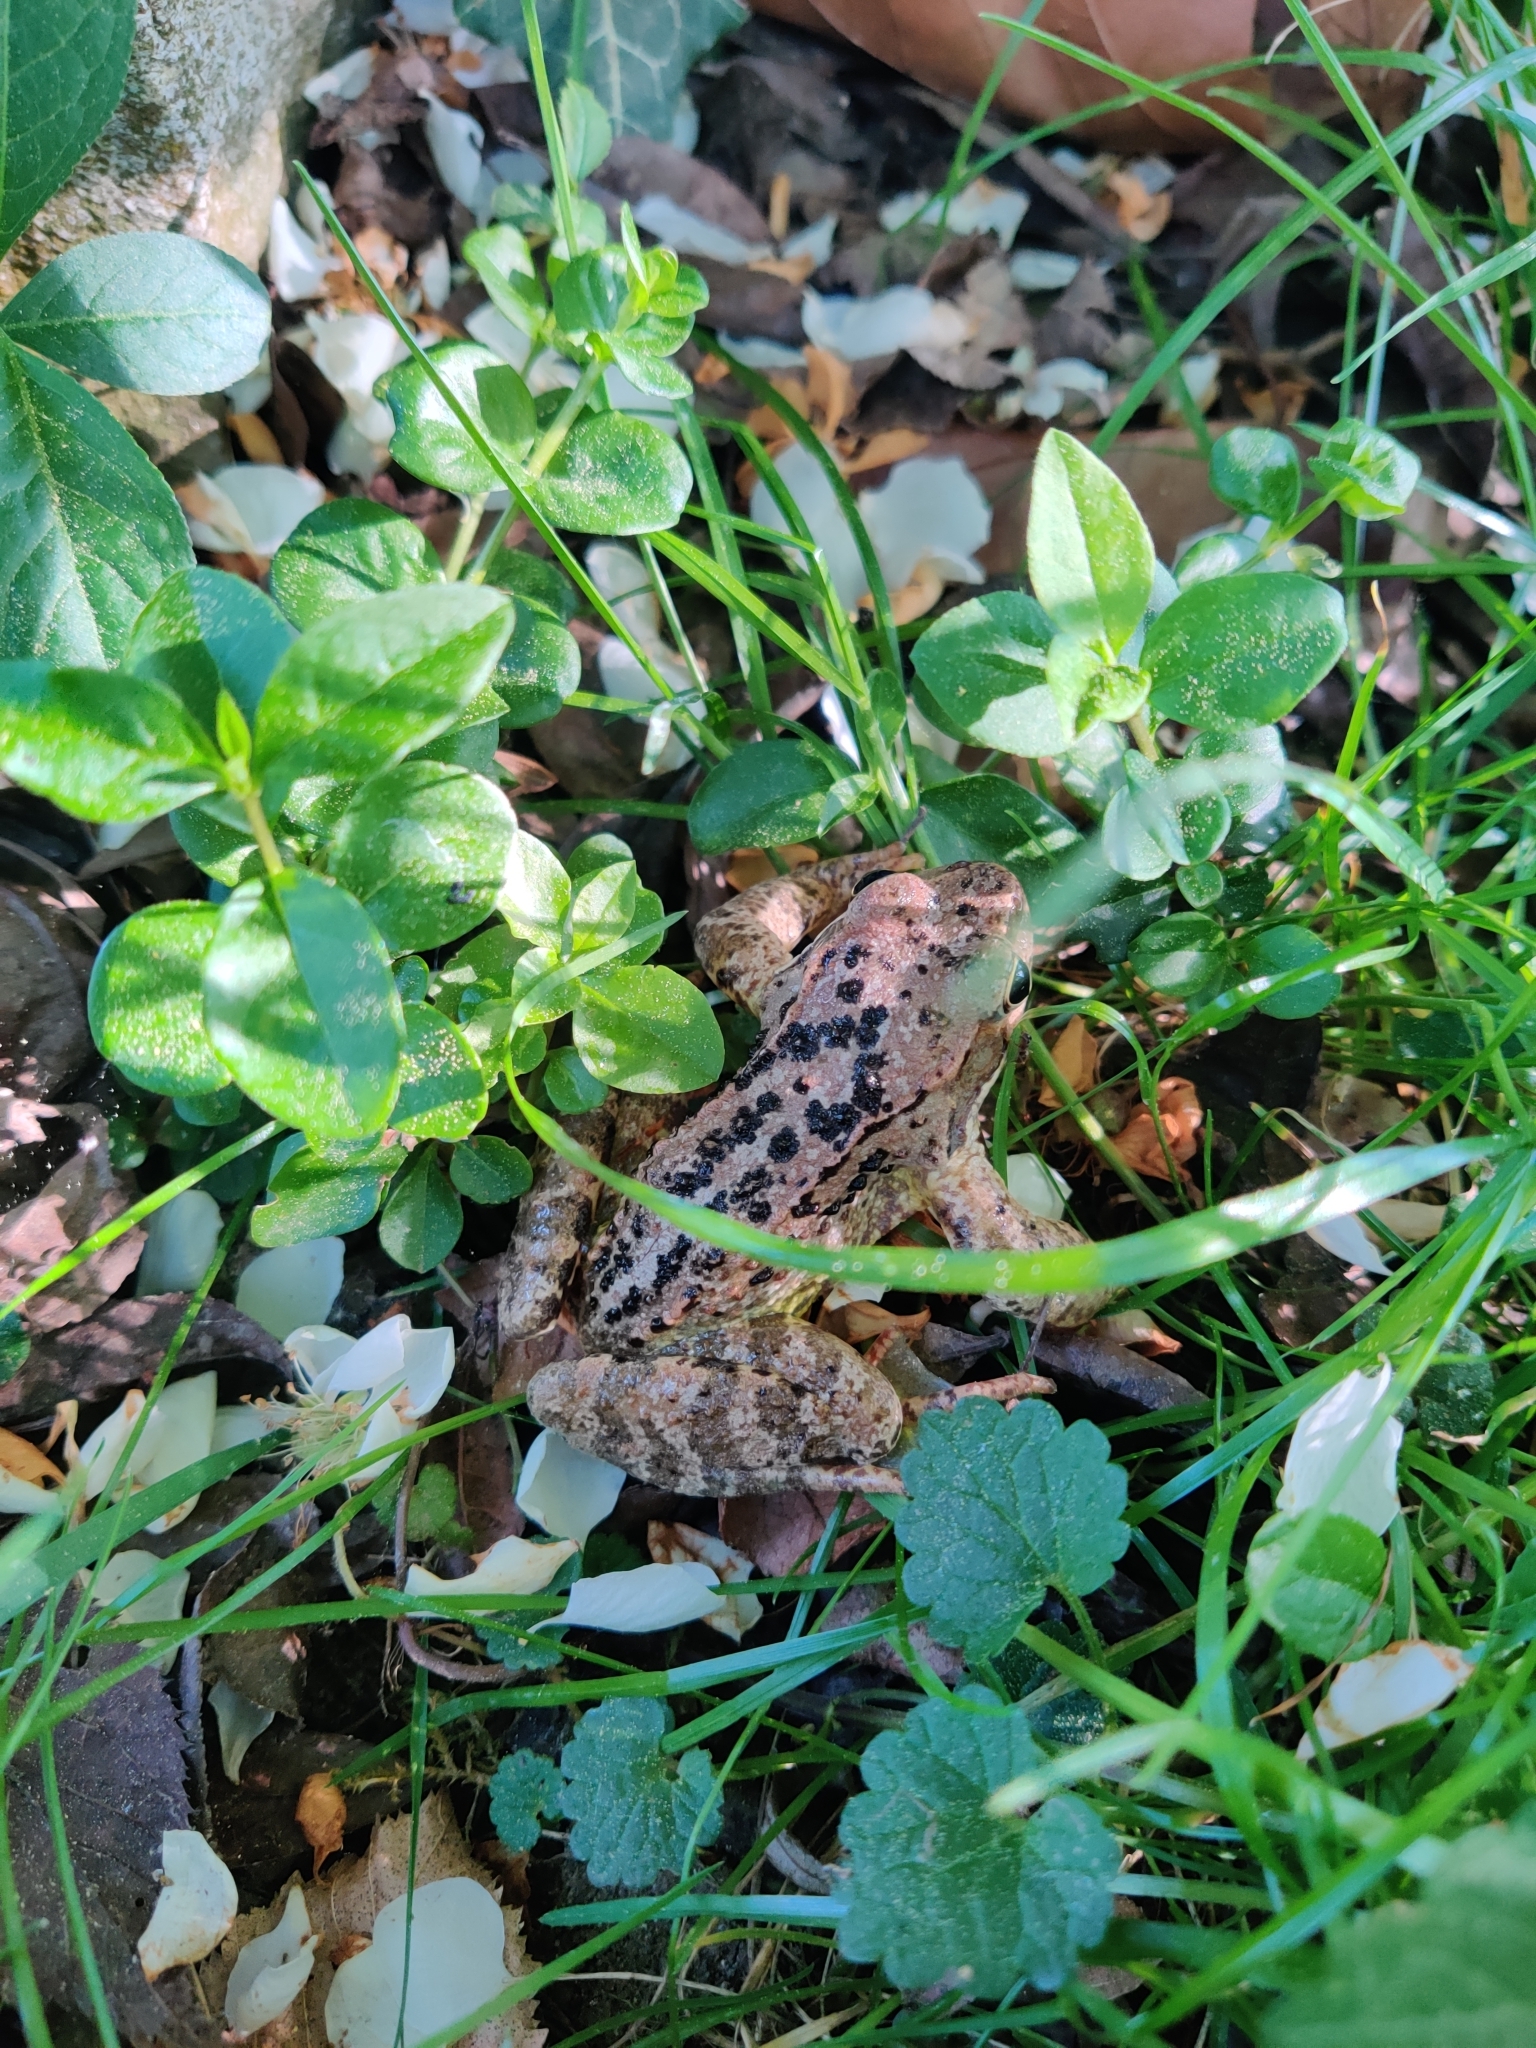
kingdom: Animalia
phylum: Chordata
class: Amphibia
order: Anura
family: Ranidae
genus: Rana
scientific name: Rana temporaria
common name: Common frog
